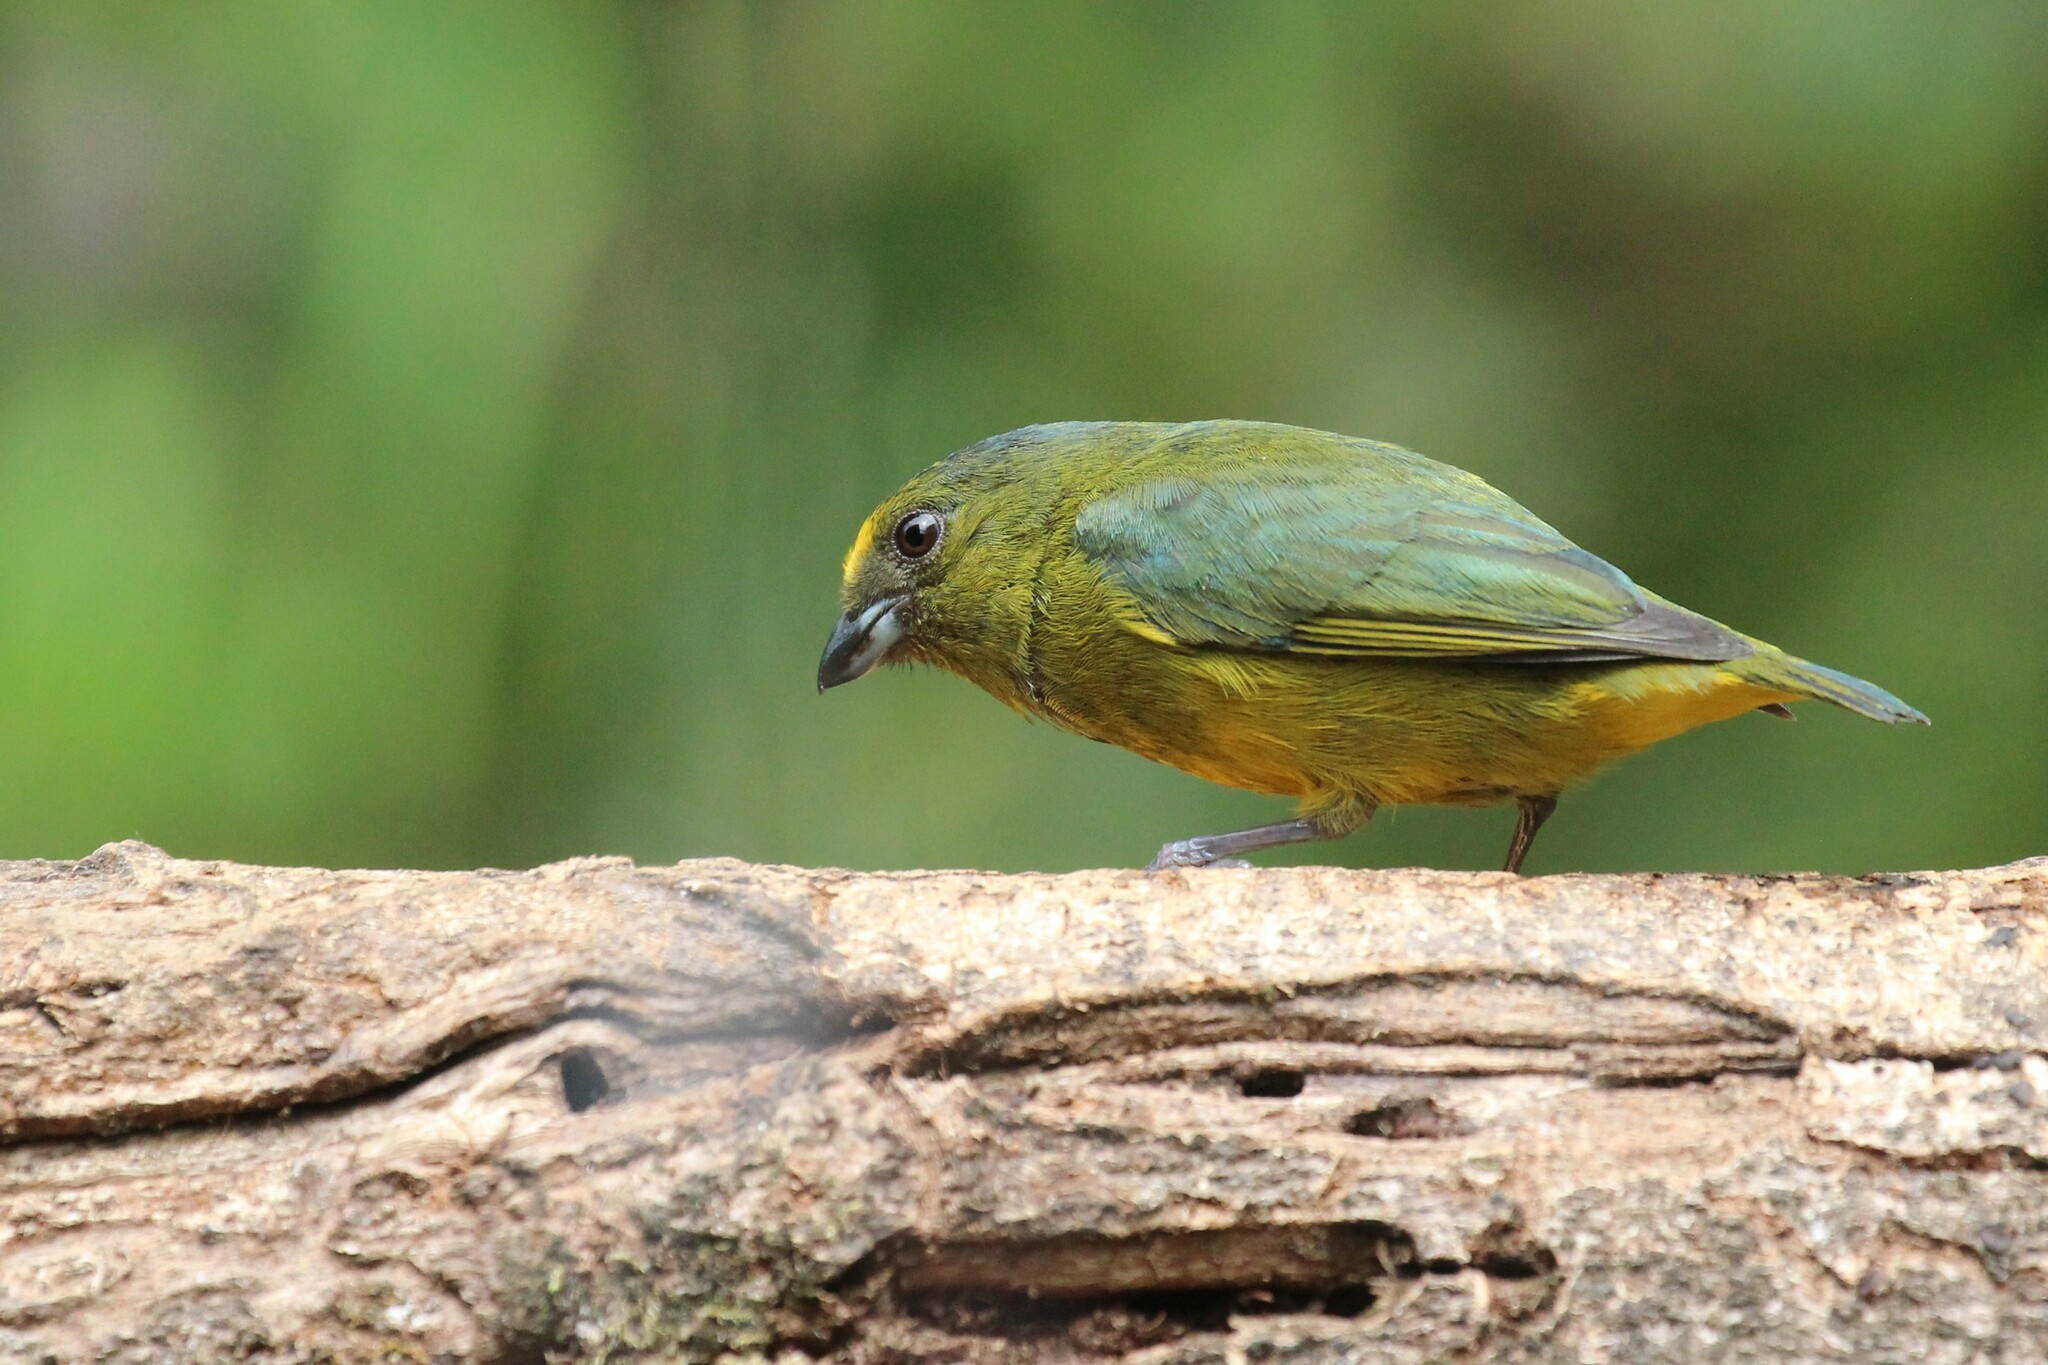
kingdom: Animalia
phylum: Chordata
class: Aves
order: Passeriformes
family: Fringillidae
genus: Euphonia
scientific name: Euphonia mesochrysa
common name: Bronze-green euphonia
